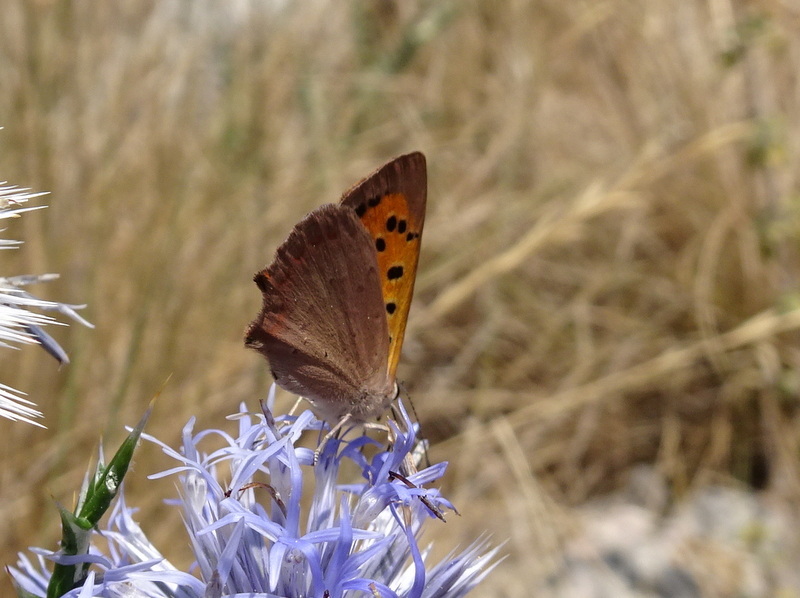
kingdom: Animalia
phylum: Arthropoda
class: Insecta
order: Lepidoptera
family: Lycaenidae
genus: Lycaena
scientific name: Lycaena phlaeas
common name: Small copper
